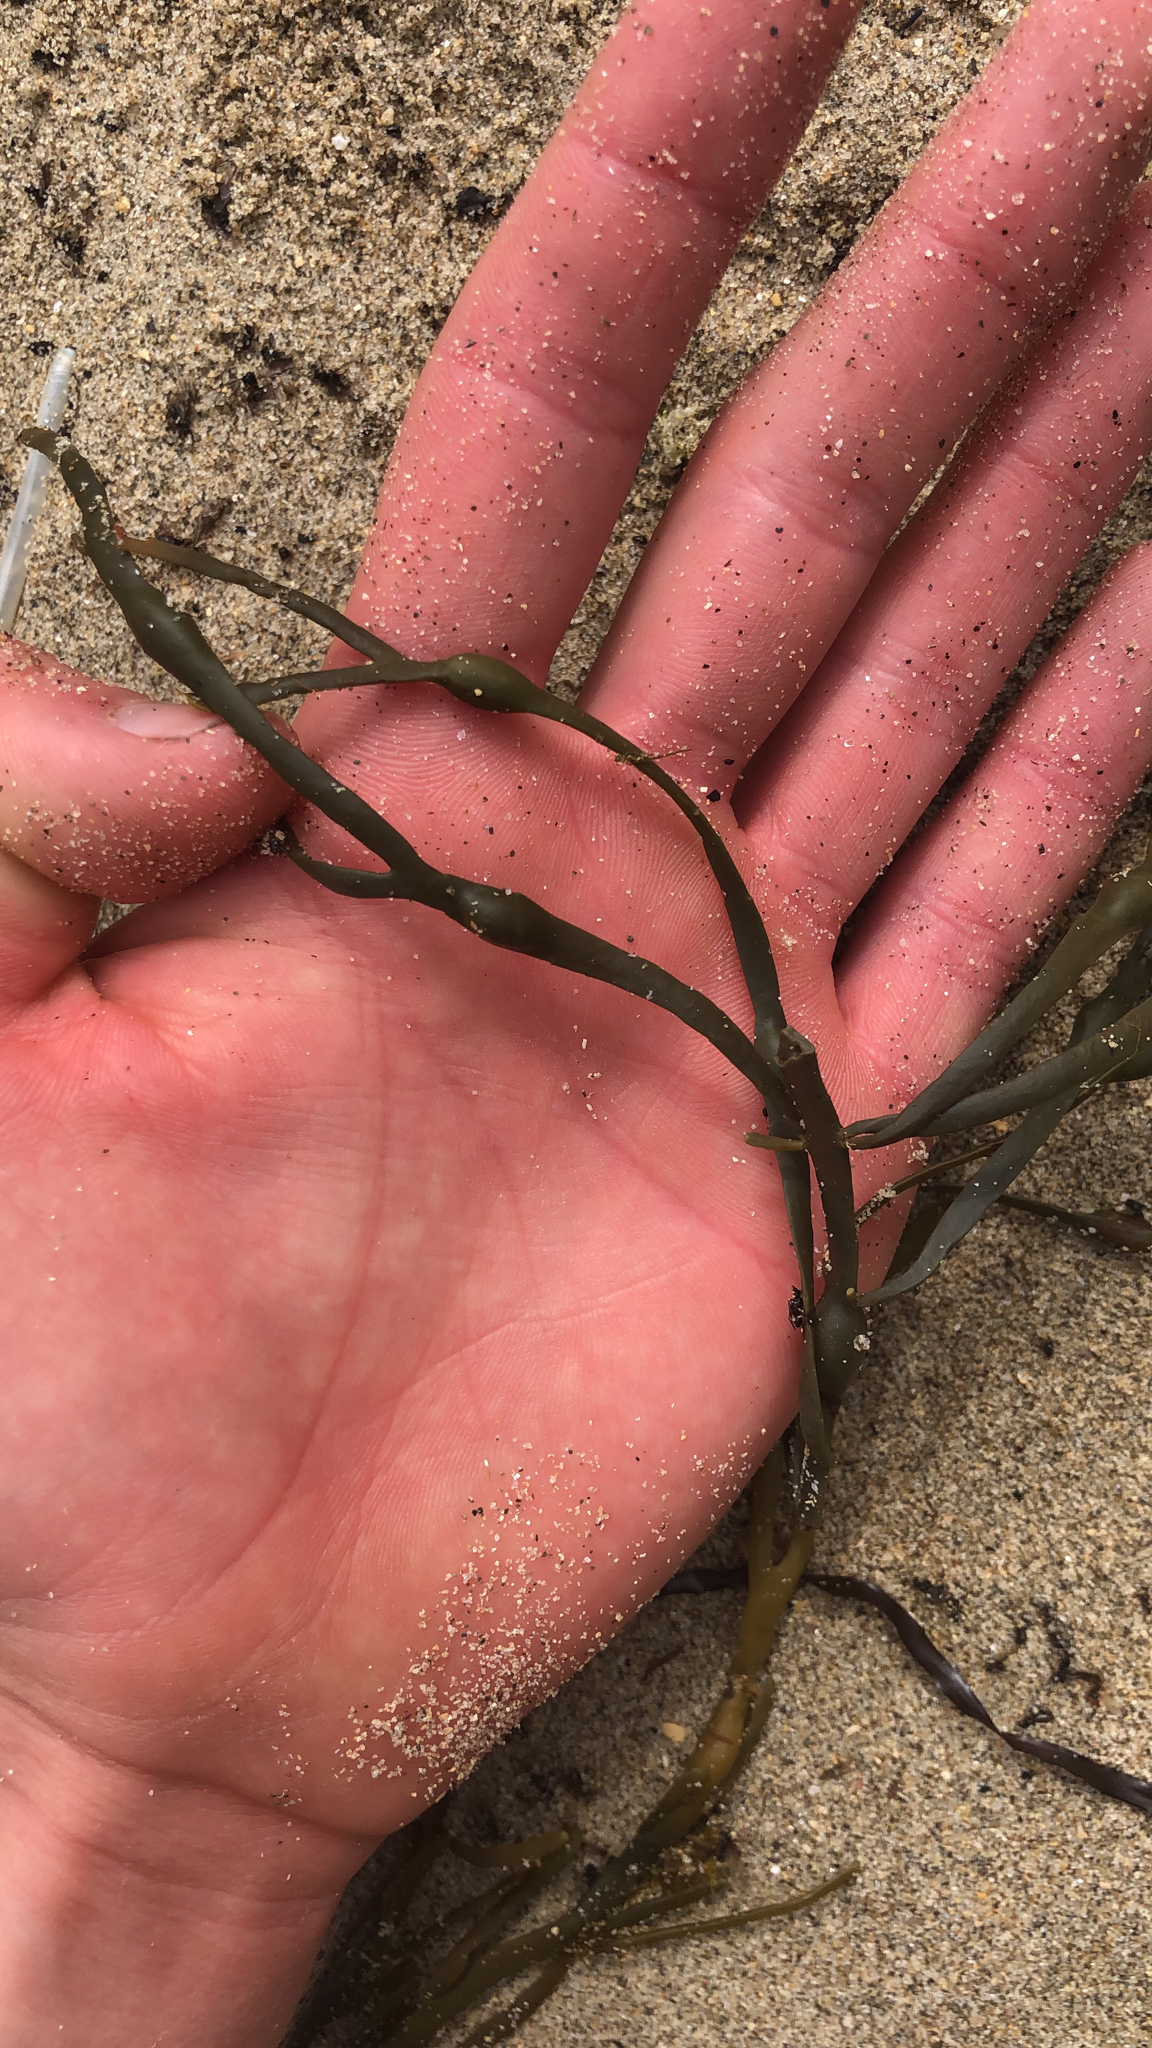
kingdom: Chromista
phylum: Ochrophyta
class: Phaeophyceae
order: Fucales
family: Fucaceae
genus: Ascophyllum
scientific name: Ascophyllum nodosum
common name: Knotted wrack
